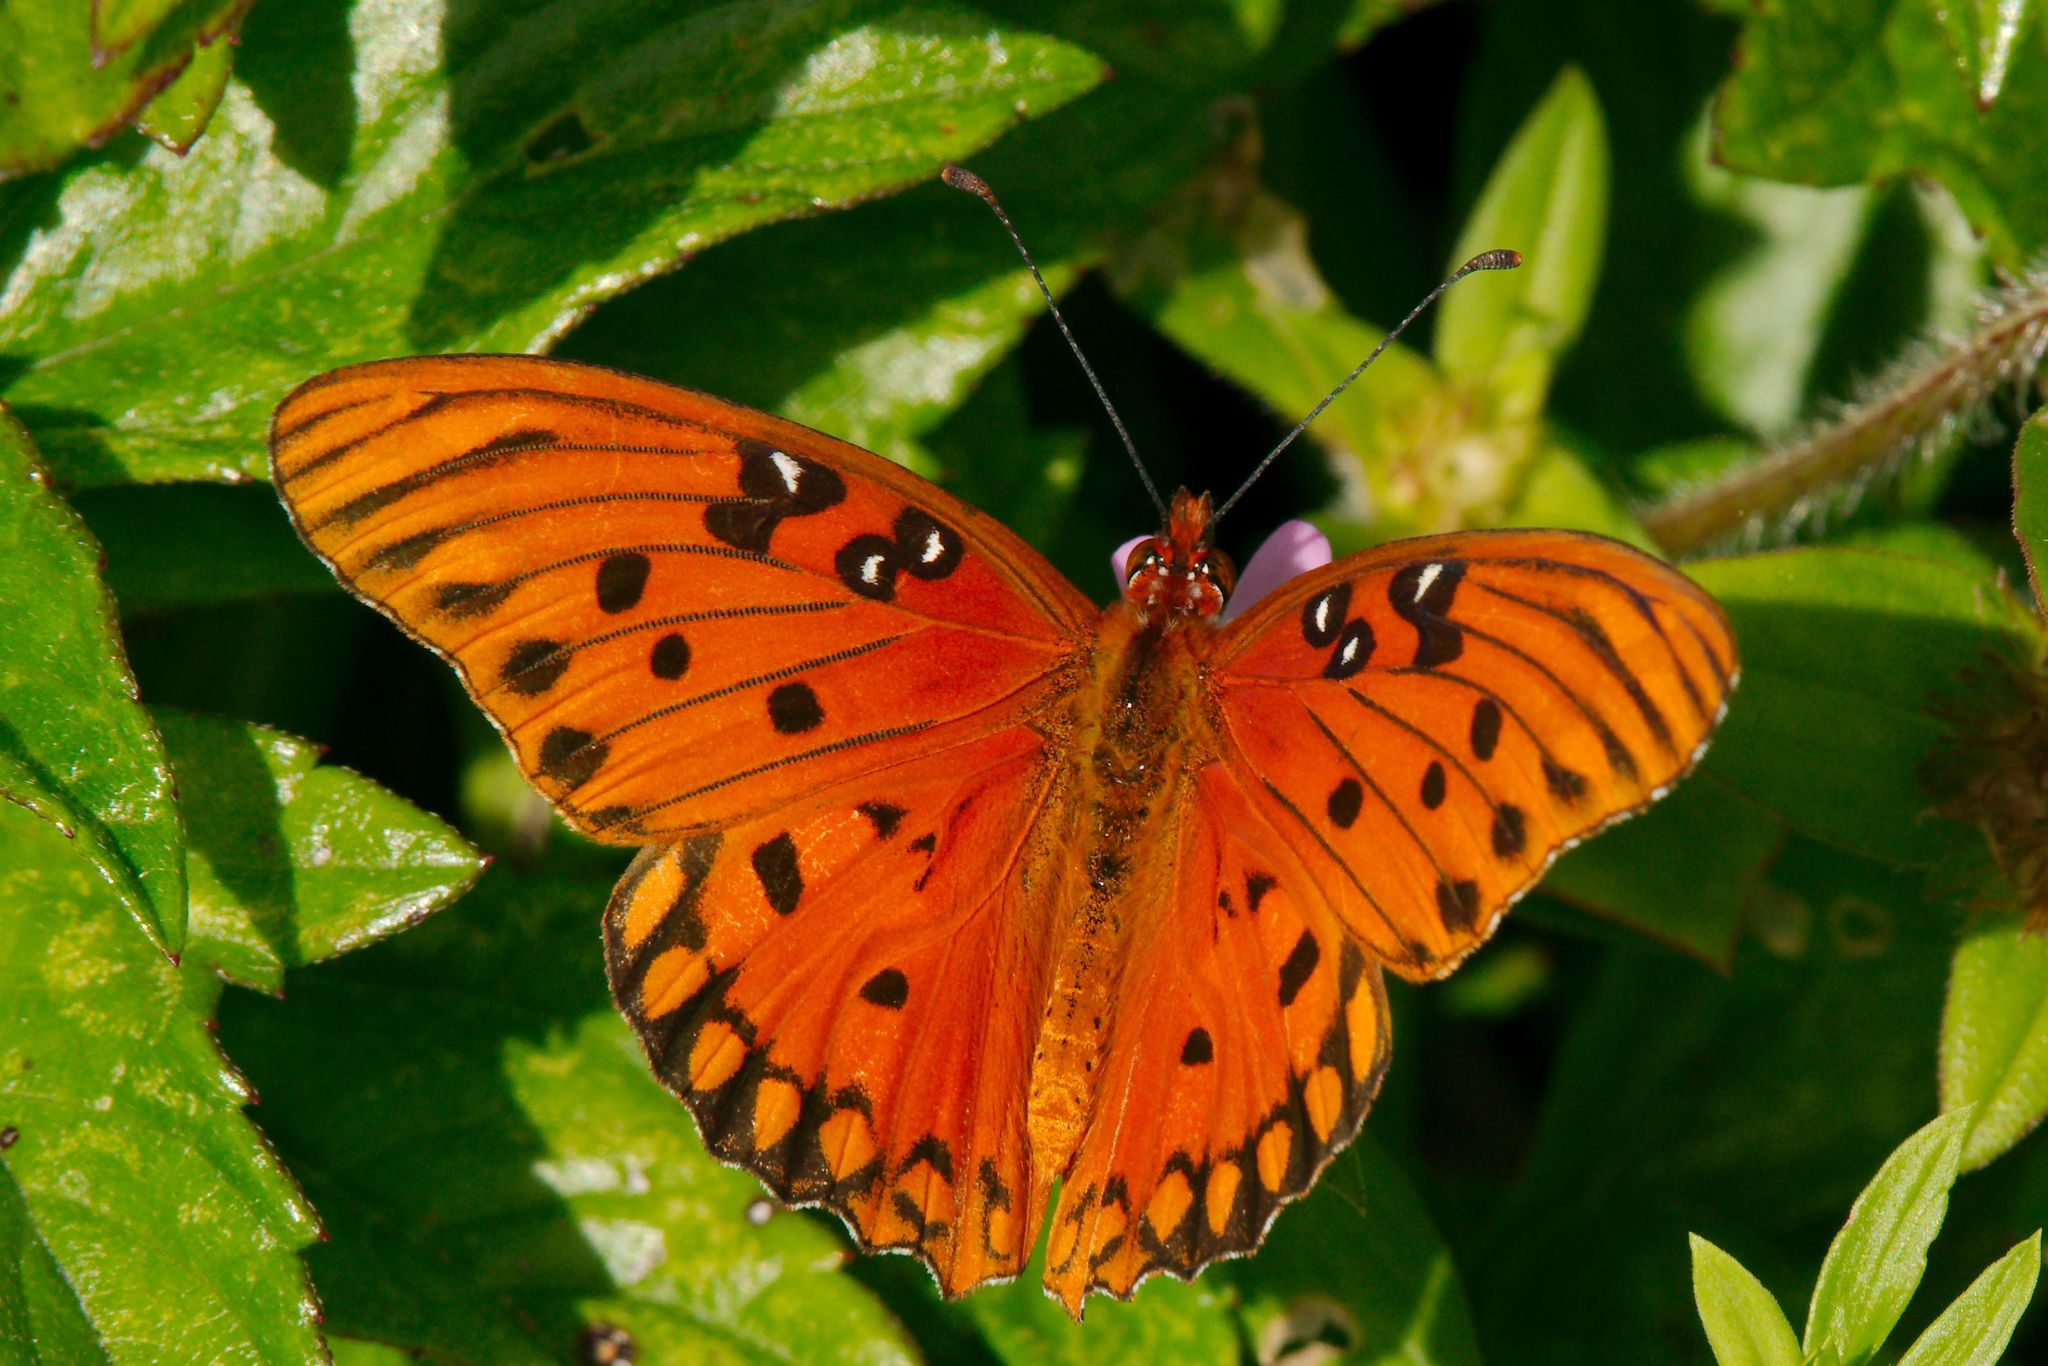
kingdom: Animalia
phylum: Arthropoda
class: Insecta
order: Lepidoptera
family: Nymphalidae
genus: Dione
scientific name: Dione vanillae
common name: Gulf fritillary
